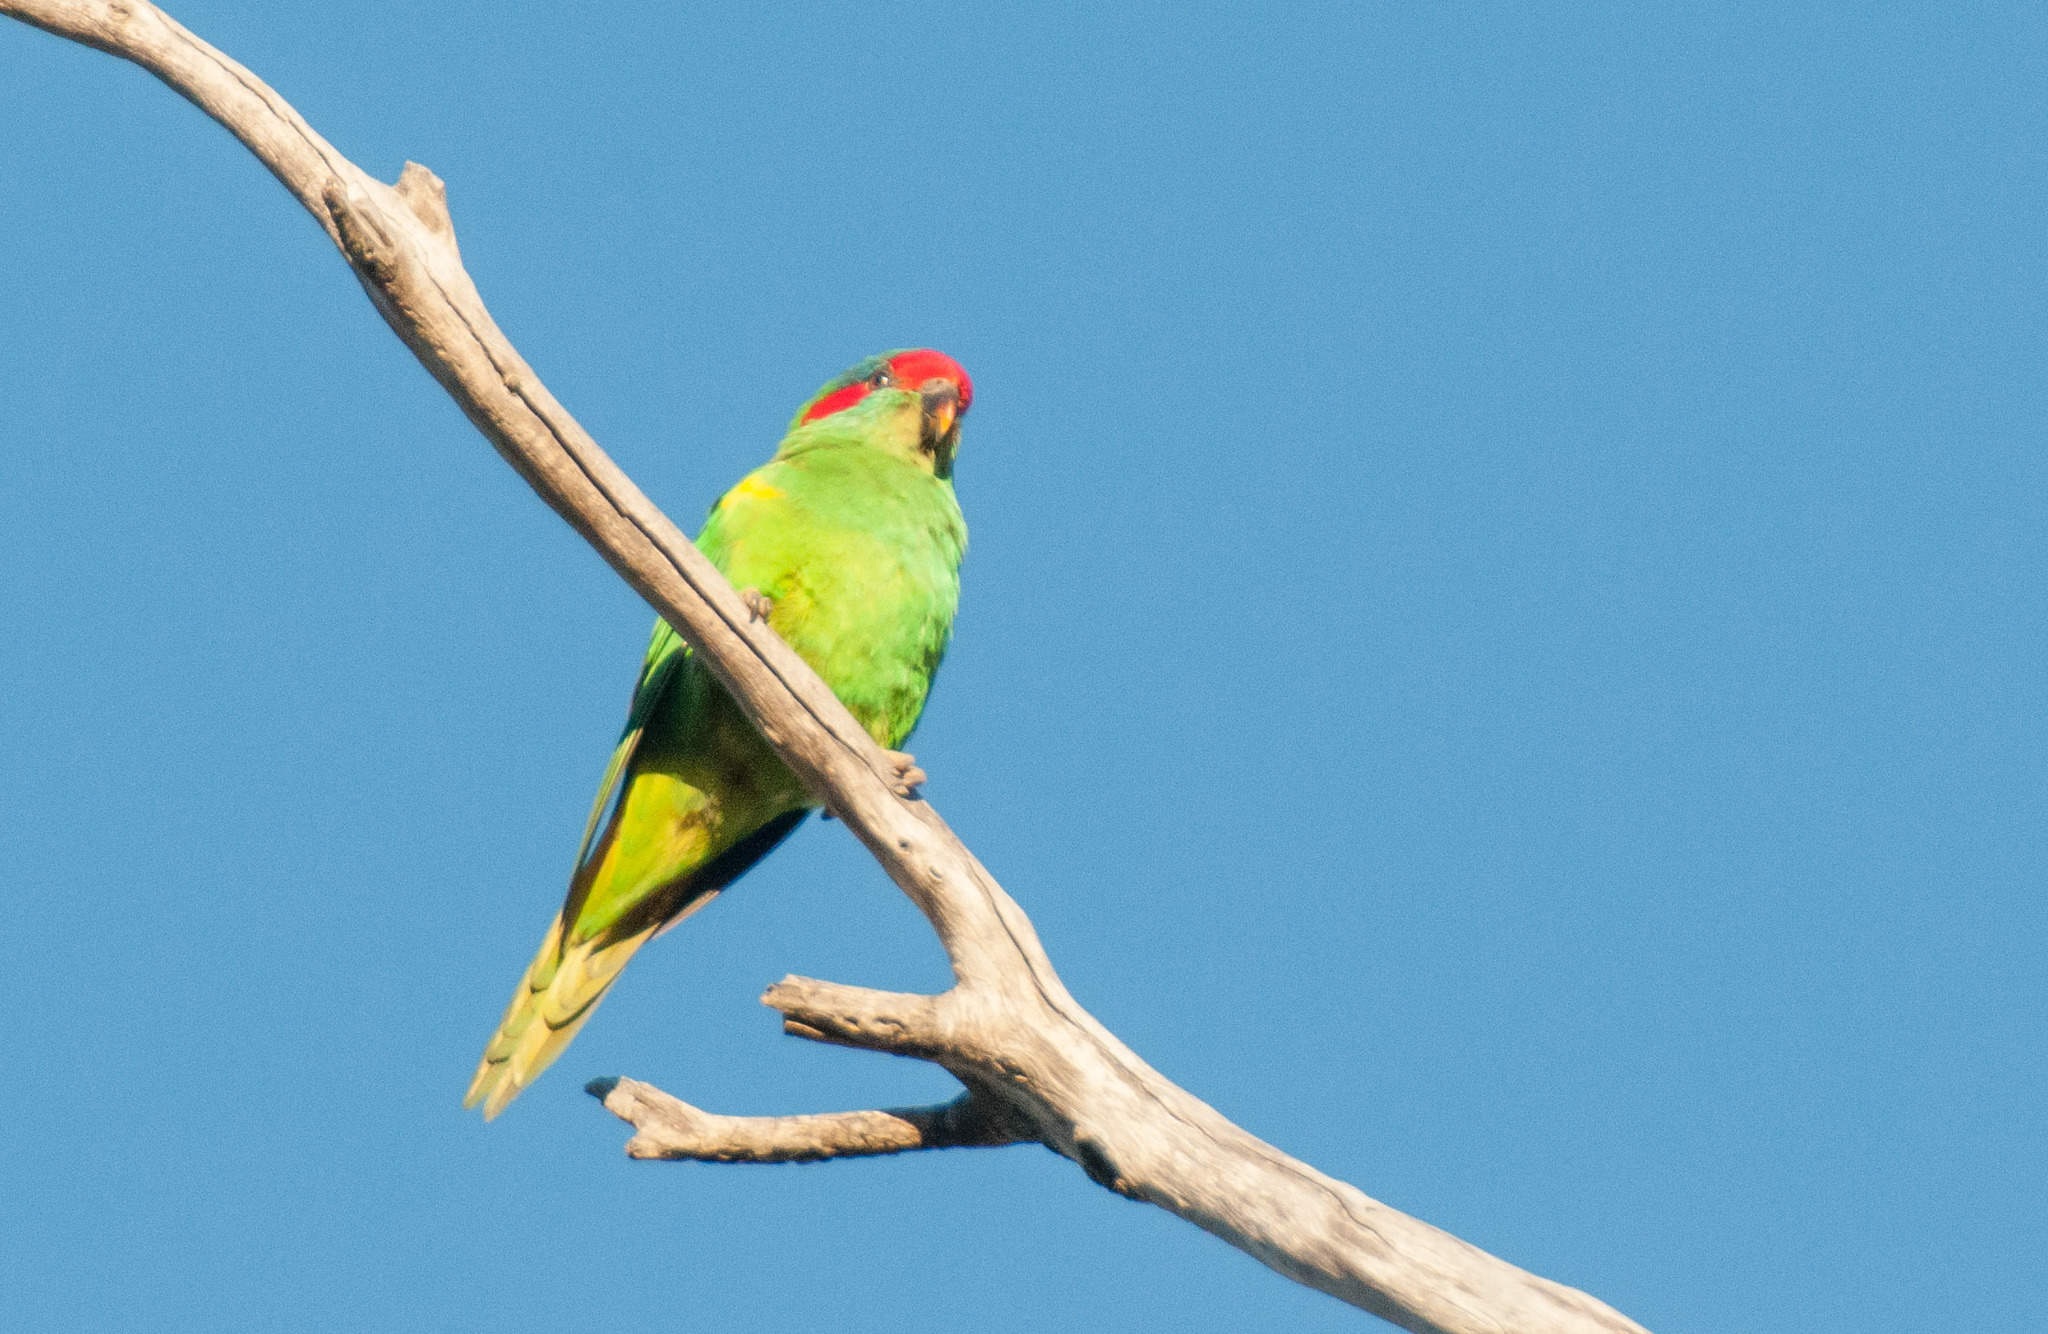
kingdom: Animalia
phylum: Chordata
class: Aves
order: Psittaciformes
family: Psittacidae
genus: Glossopsitta
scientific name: Glossopsitta concinna
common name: Musk lorikeet
